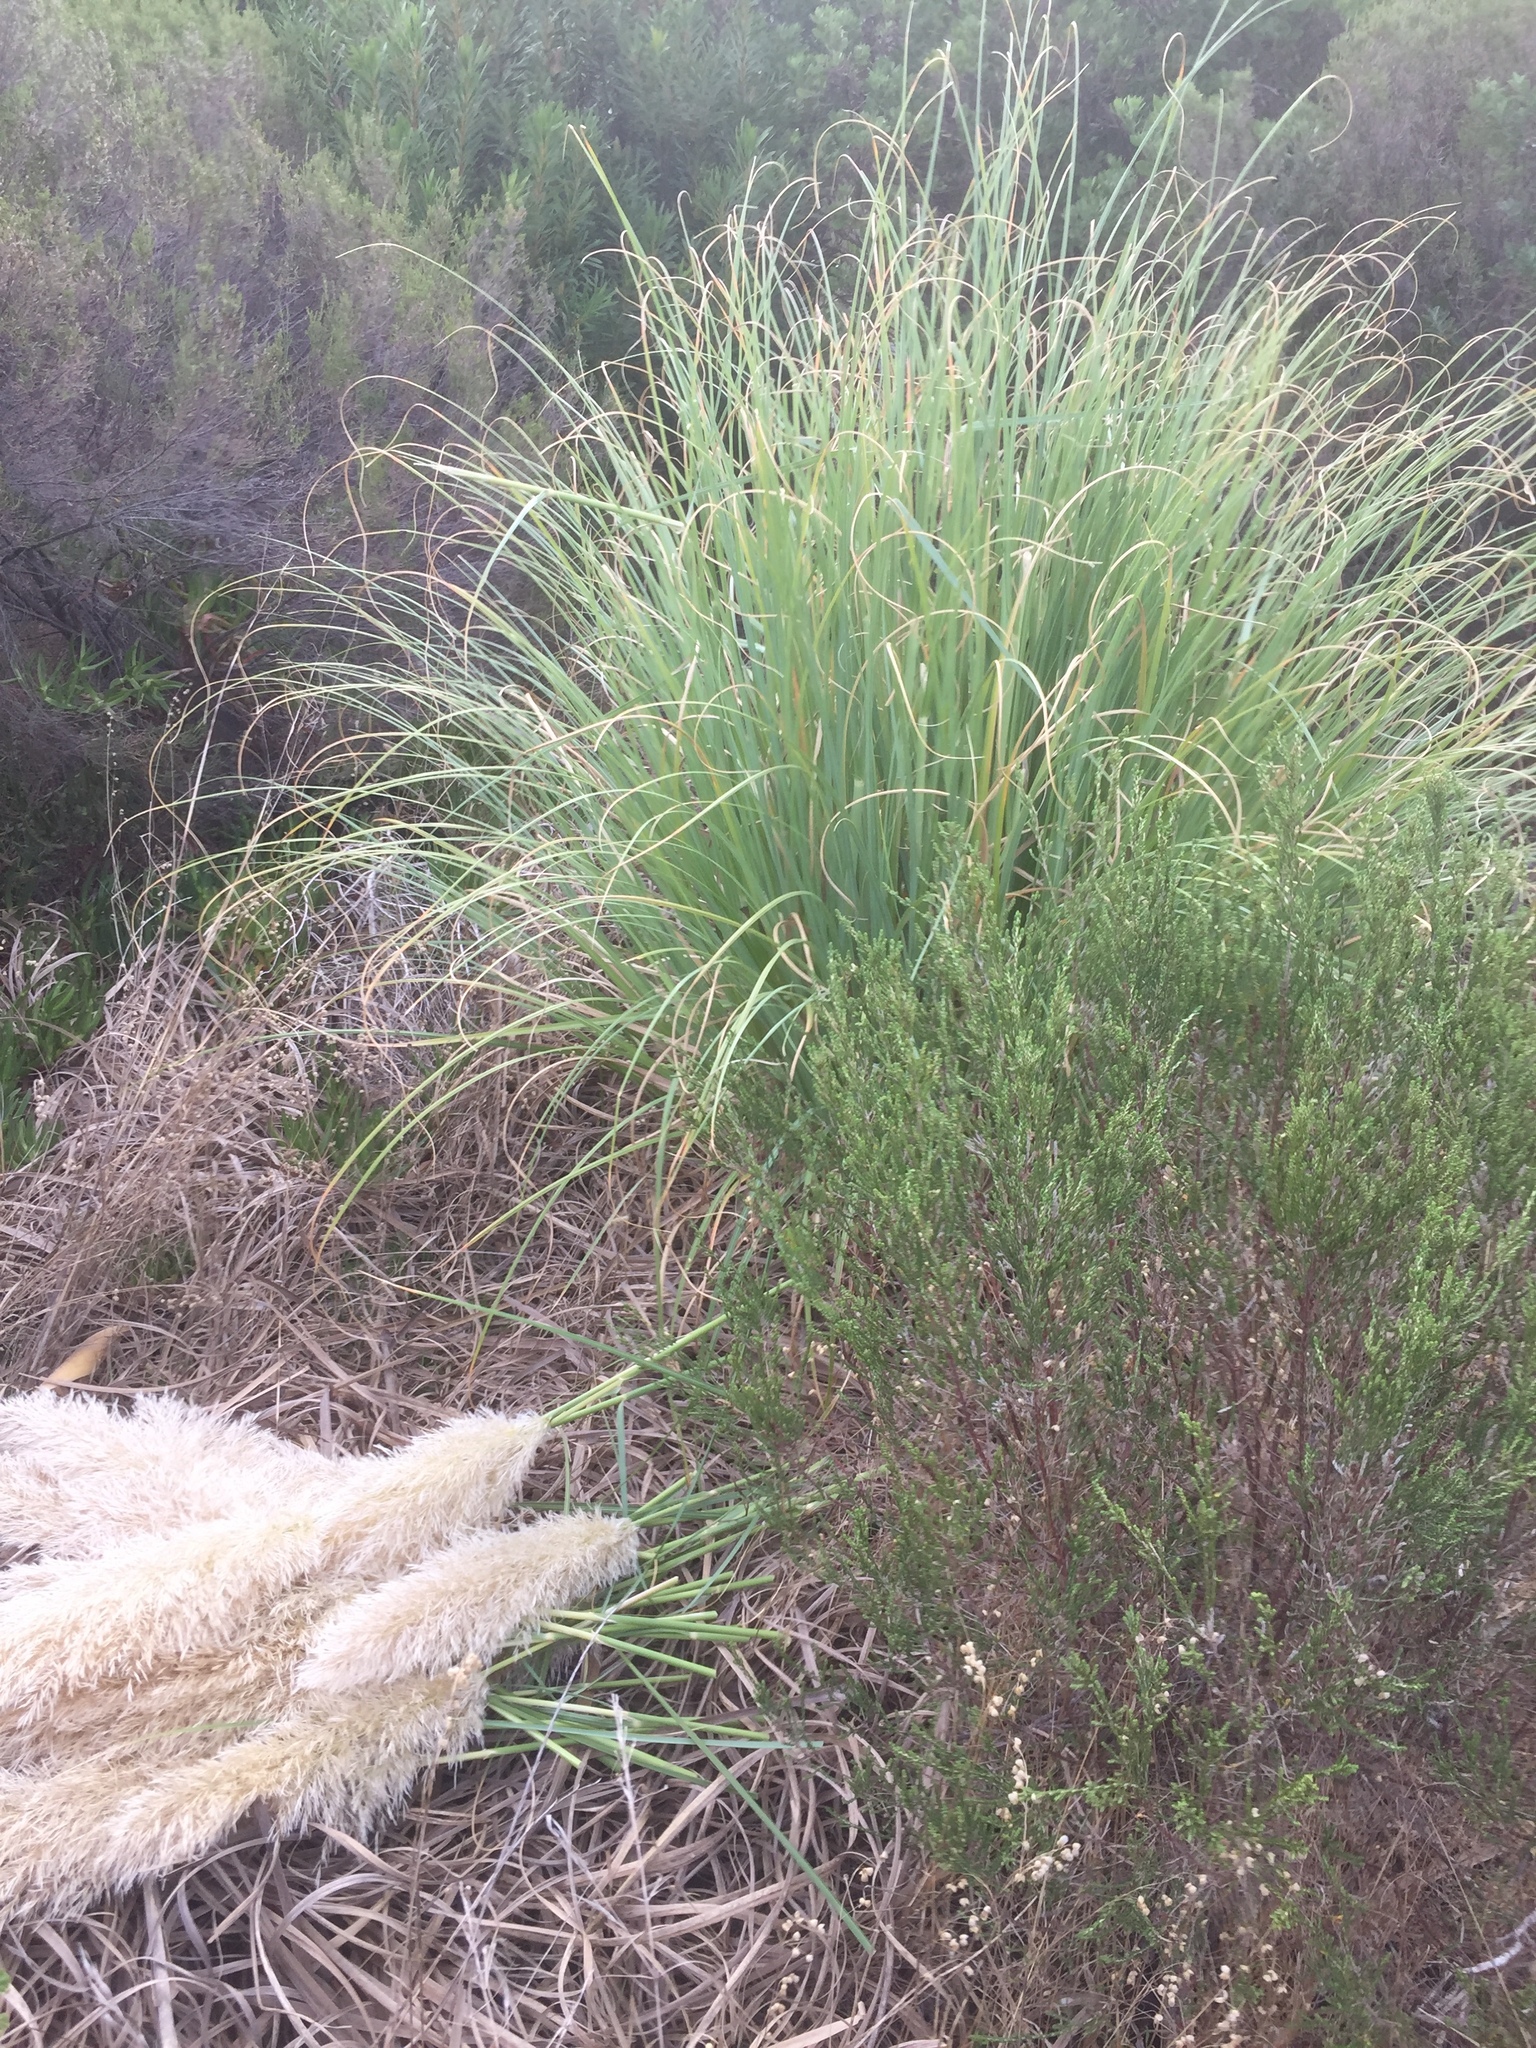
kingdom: Plantae
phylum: Tracheophyta
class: Liliopsida
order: Poales
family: Poaceae
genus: Cortaderia
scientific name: Cortaderia selloana
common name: Uruguayan pampas grass
